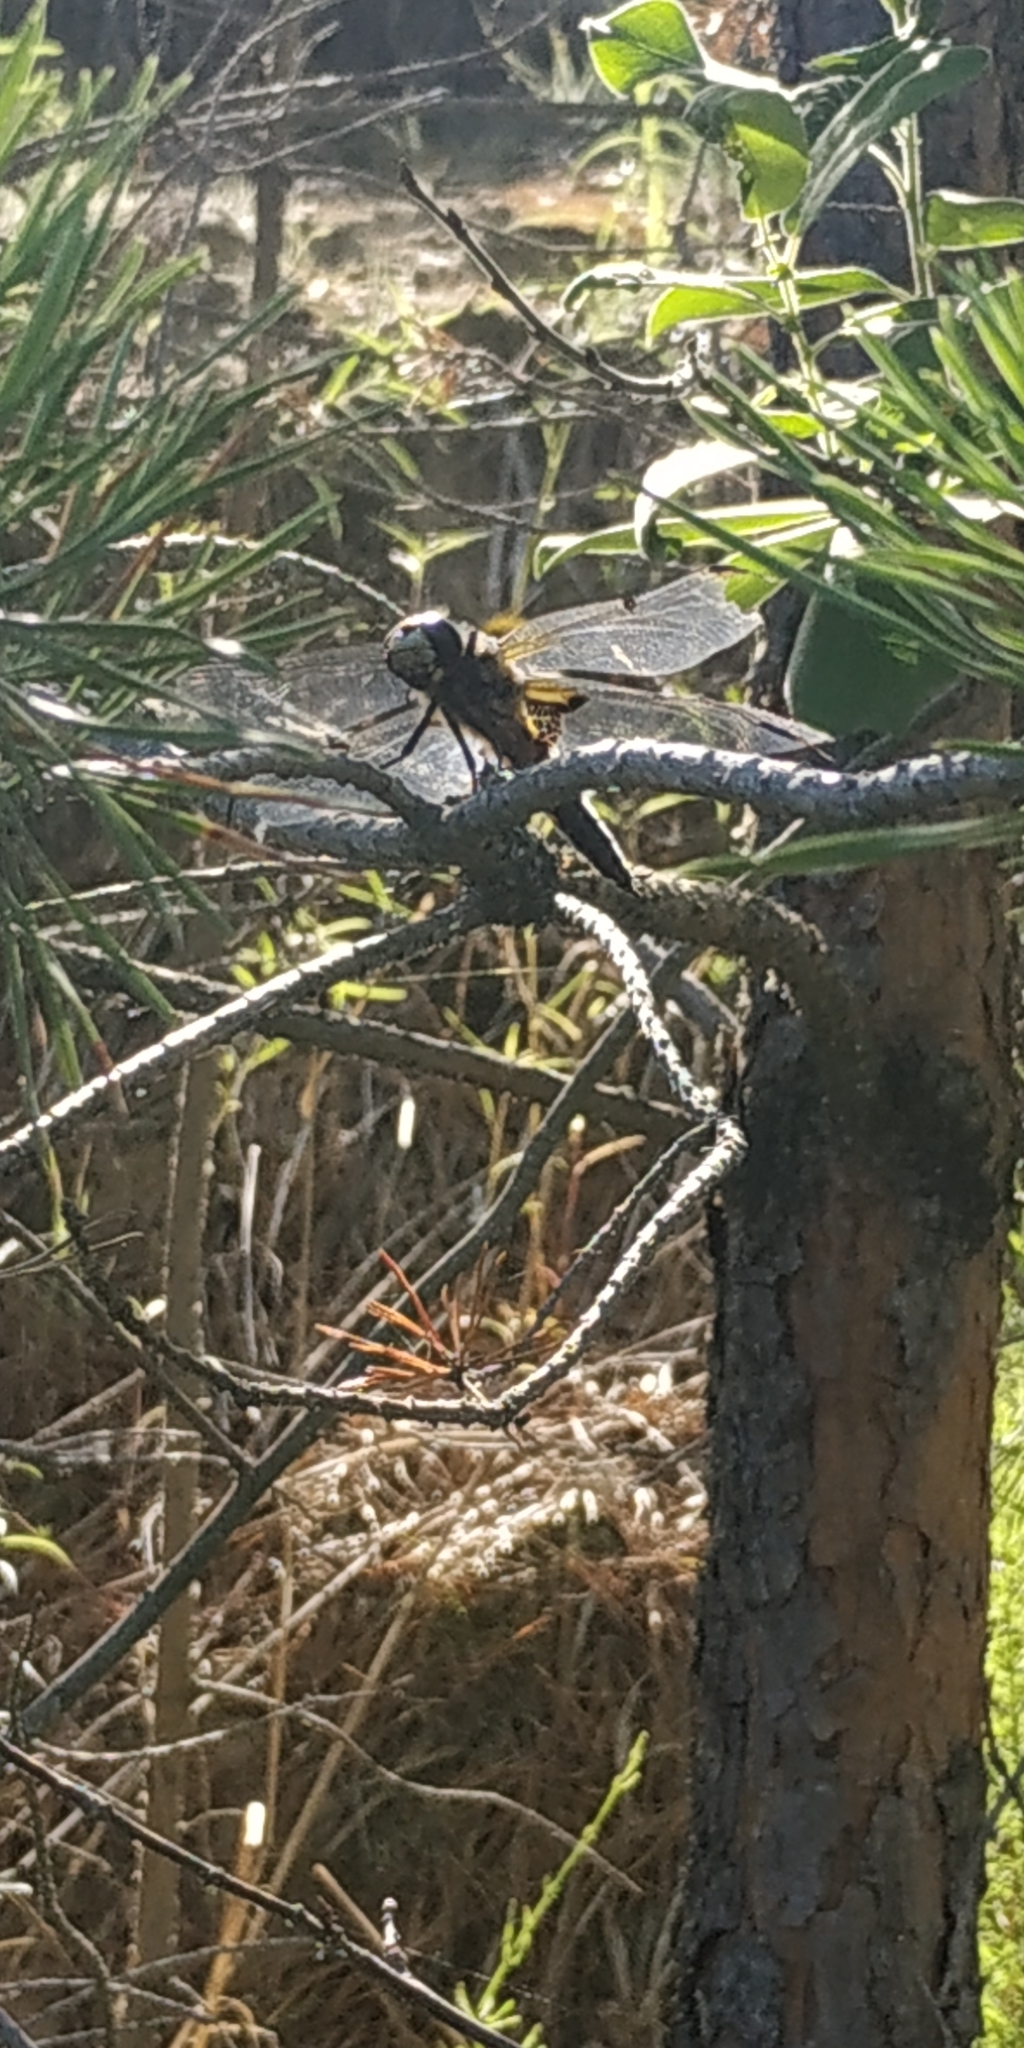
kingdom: Animalia
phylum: Arthropoda
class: Insecta
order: Odonata
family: Libellulidae
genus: Libellula
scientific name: Libellula quadrimaculata
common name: Four-spotted chaser
